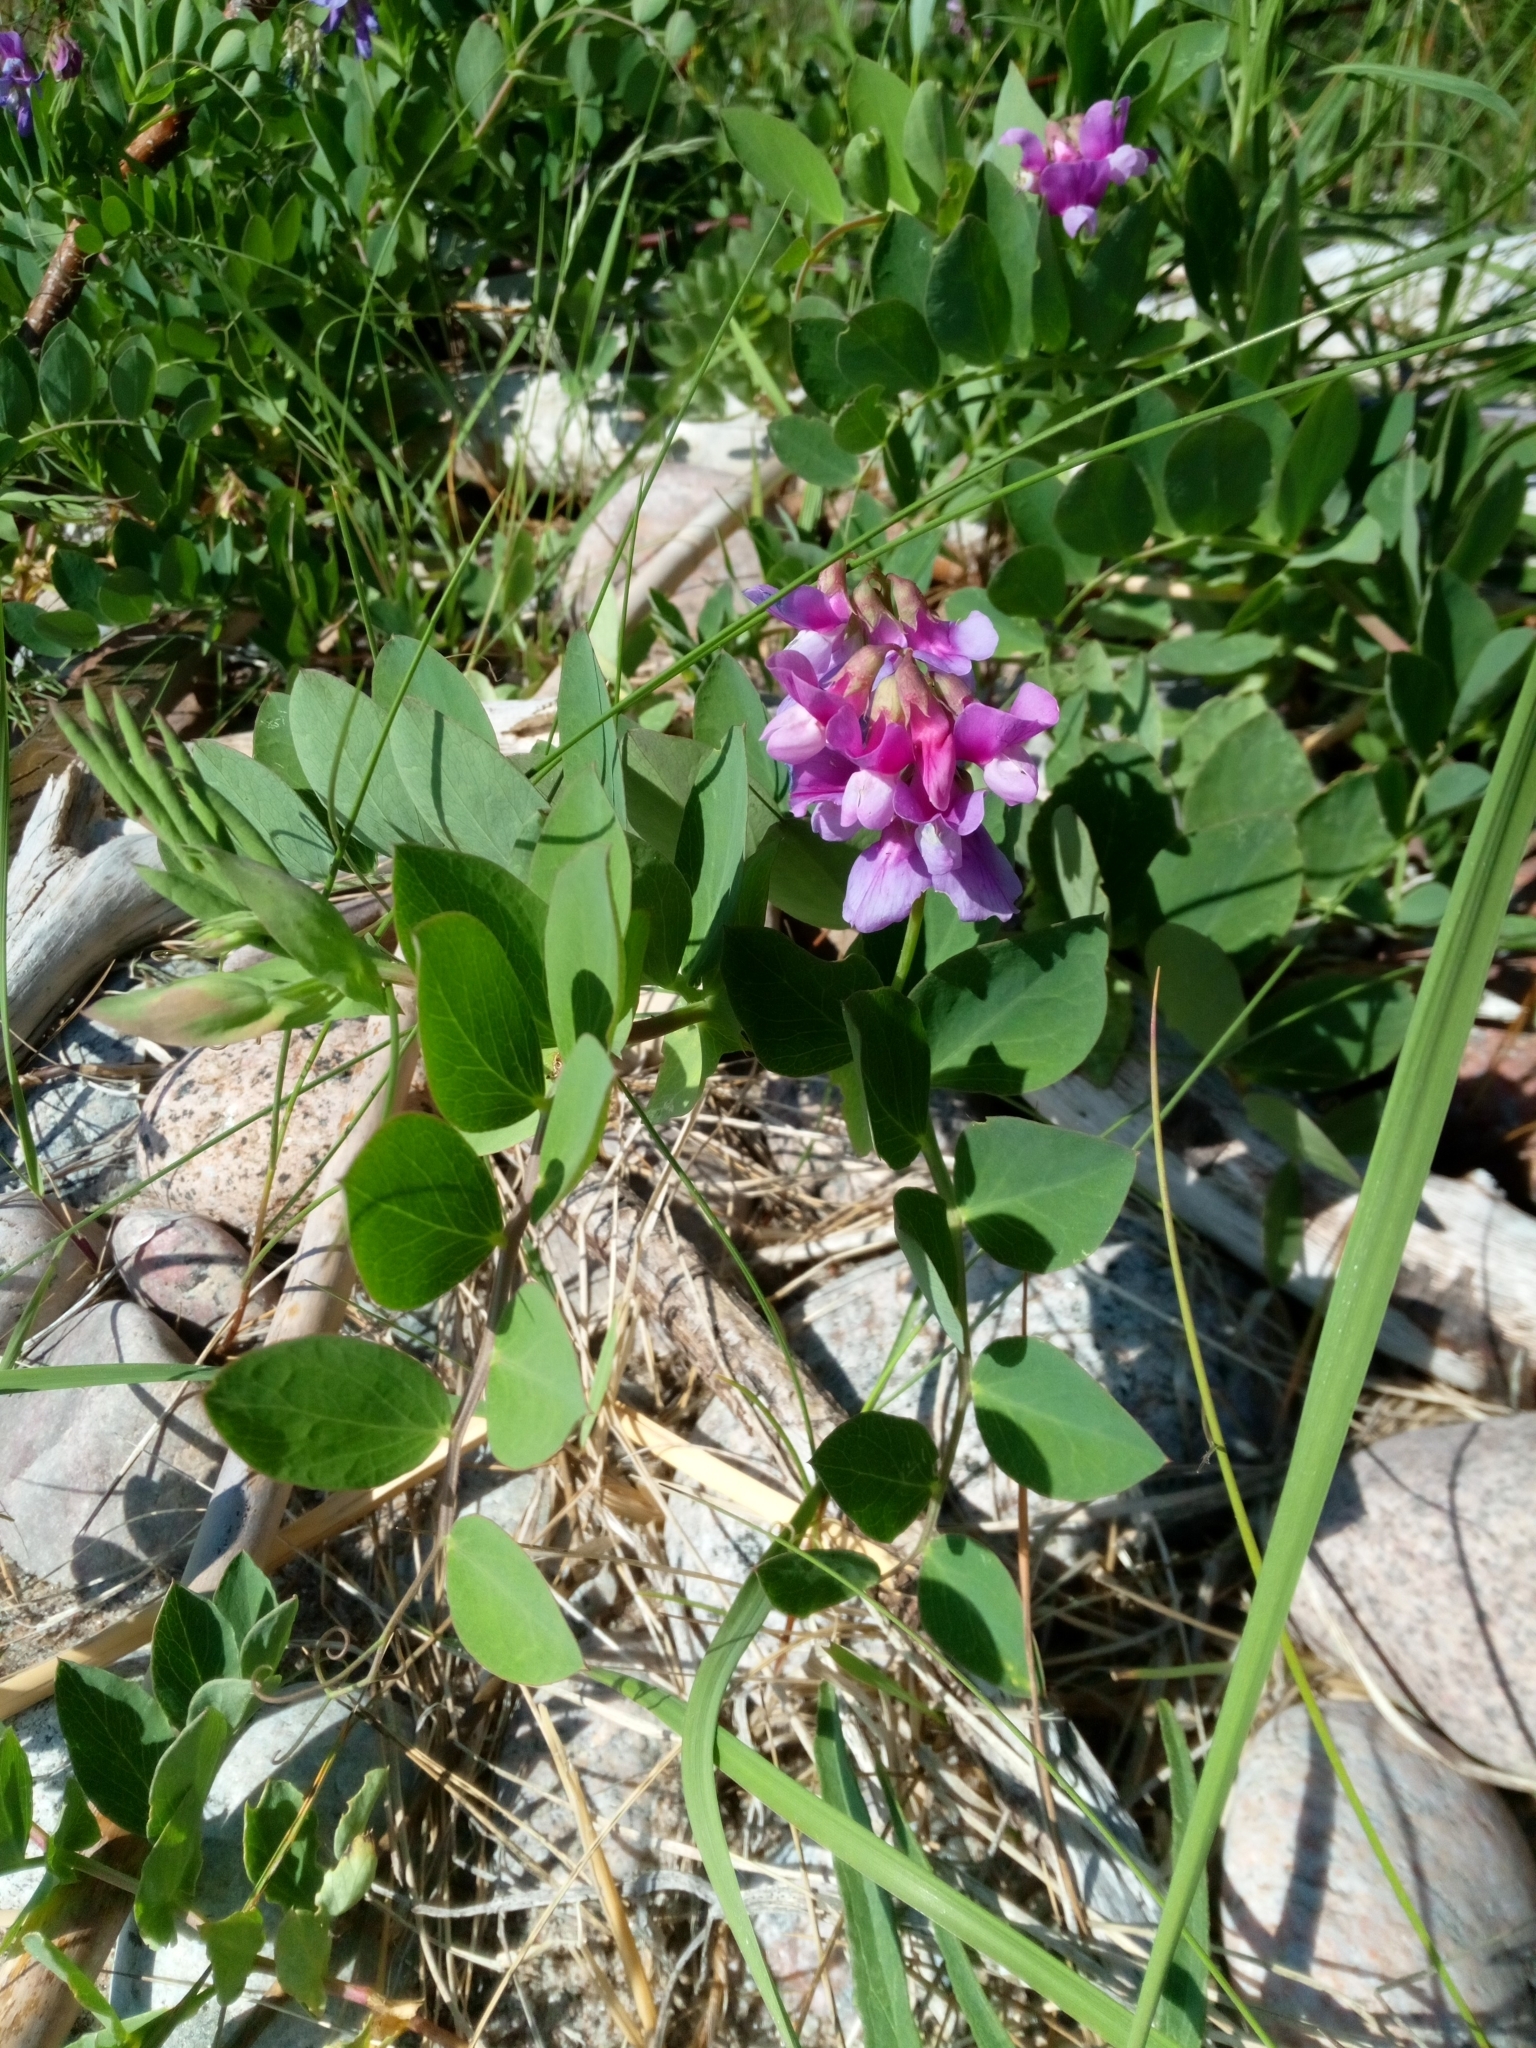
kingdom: Plantae
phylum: Tracheophyta
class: Magnoliopsida
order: Fabales
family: Fabaceae
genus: Lathyrus
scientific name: Lathyrus japonicus
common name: Sea pea
